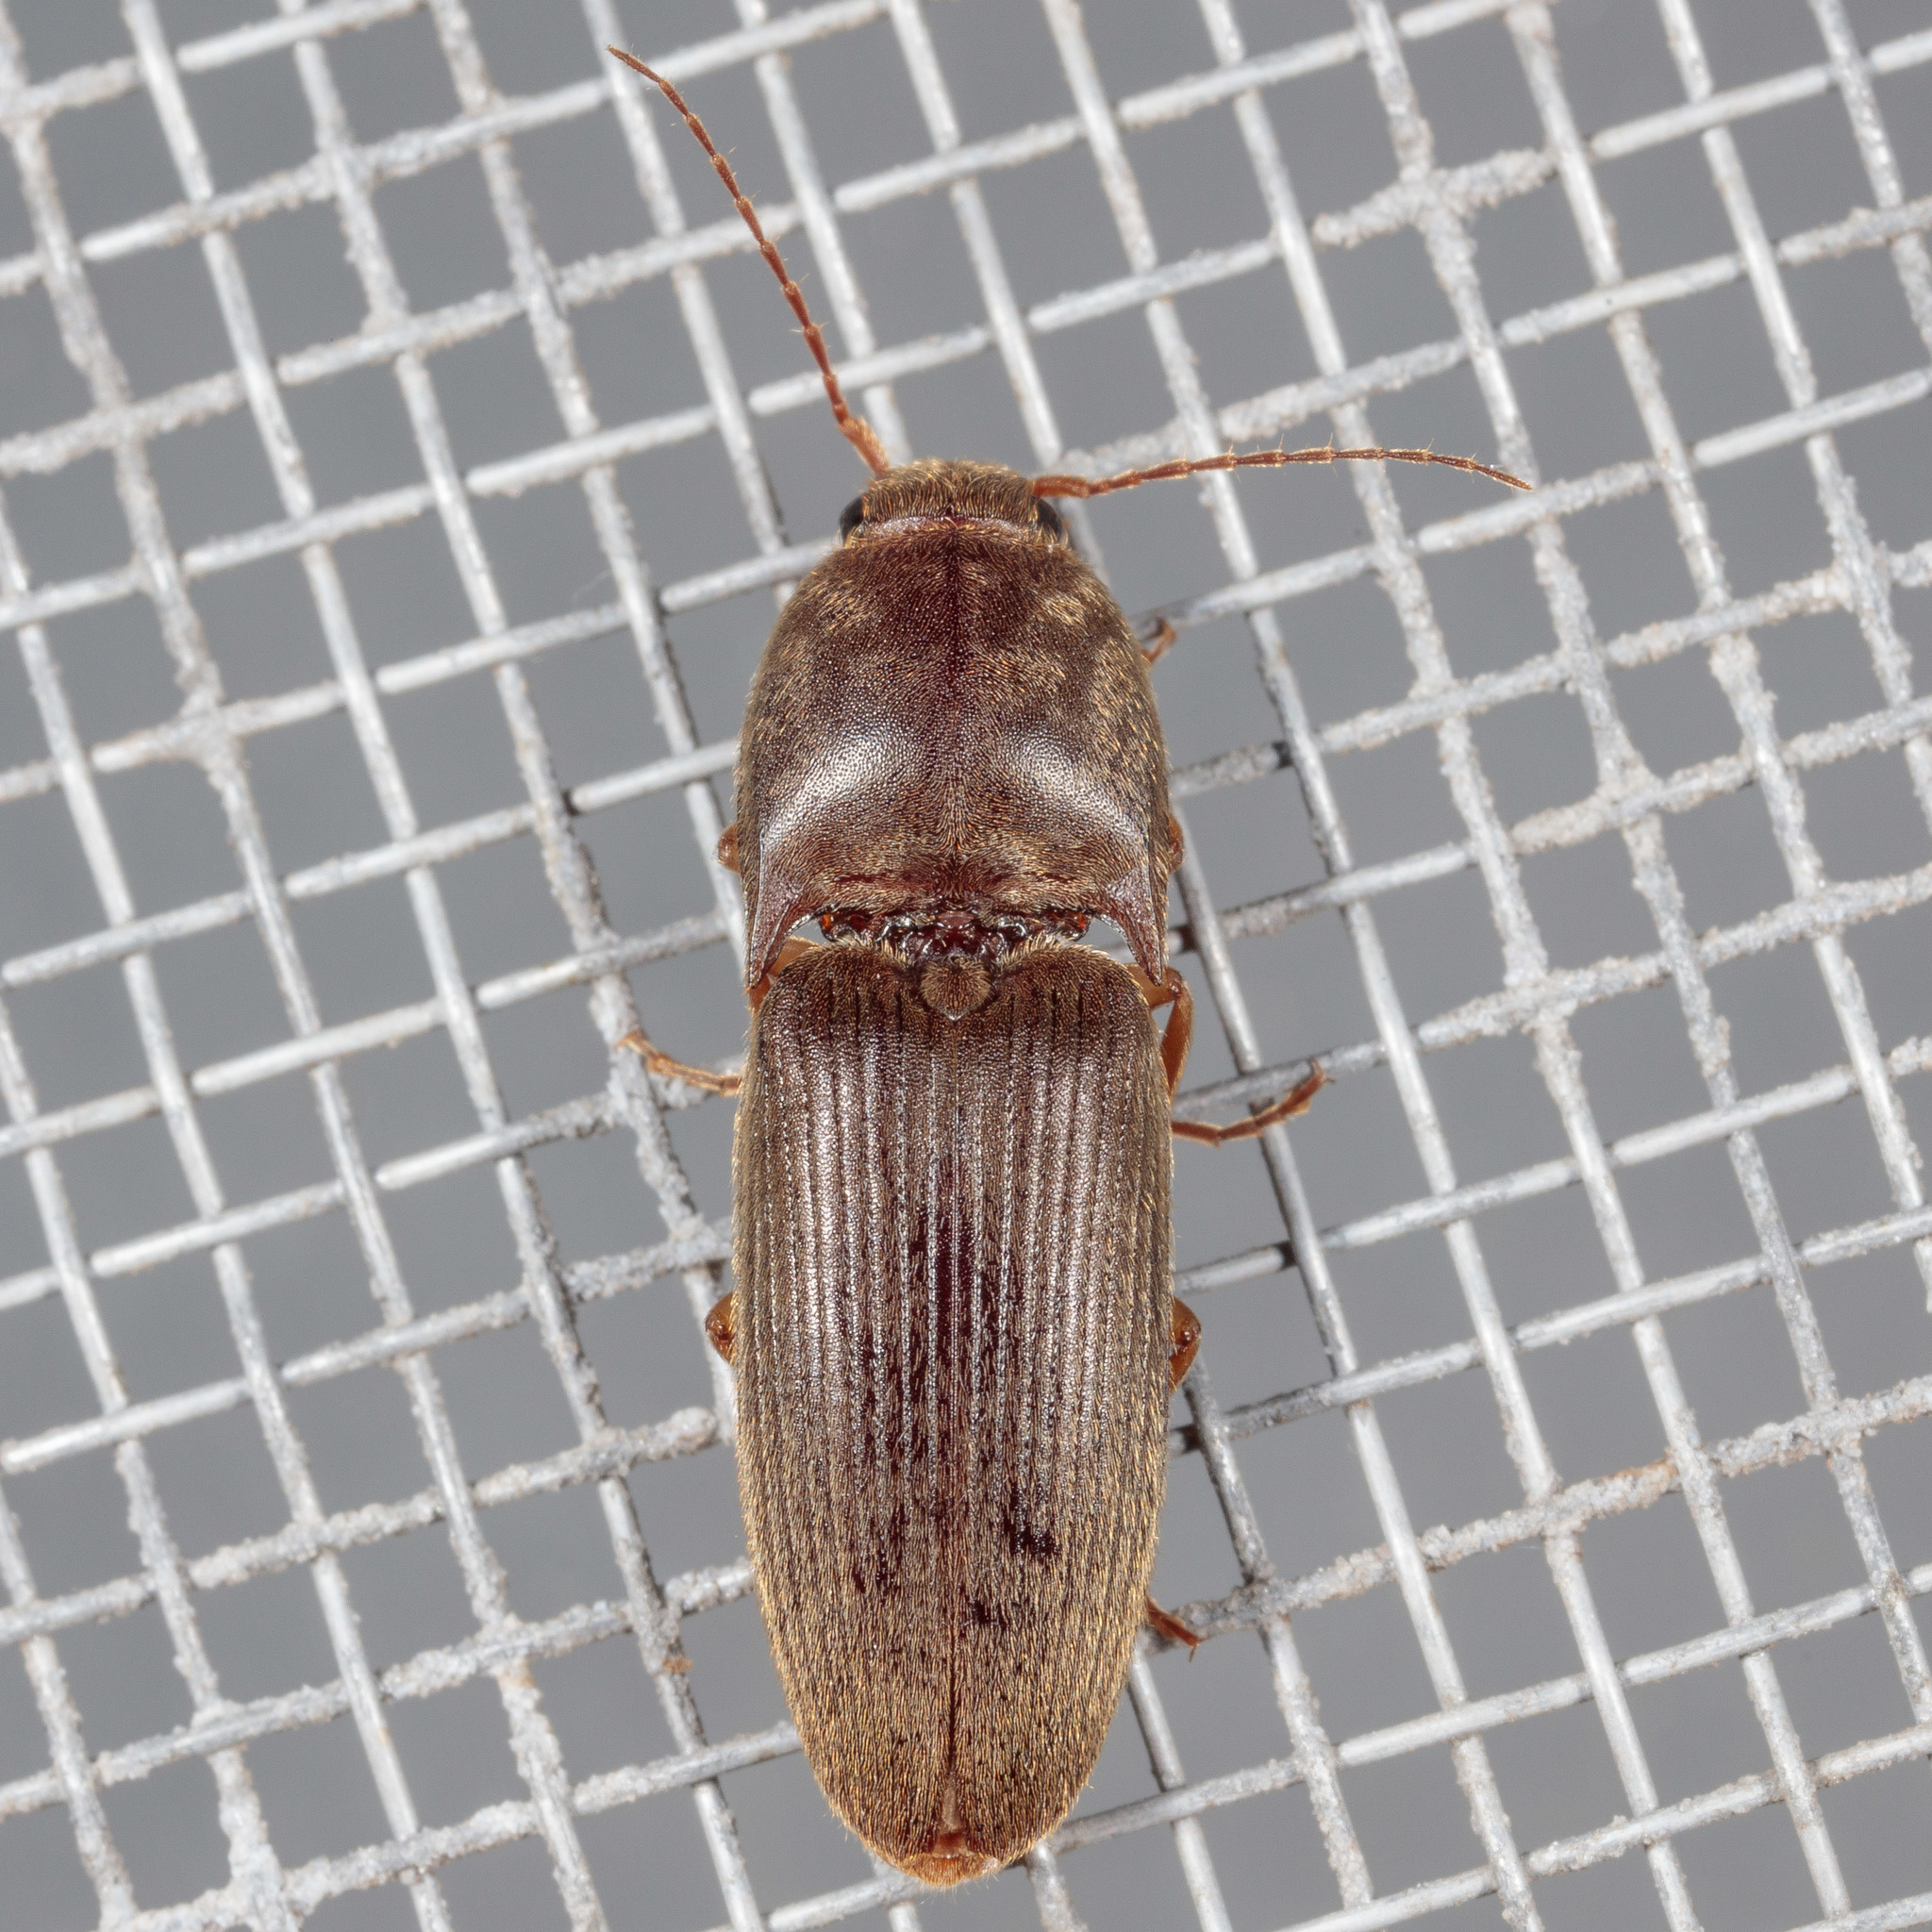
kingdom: Animalia
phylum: Arthropoda
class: Insecta
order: Coleoptera
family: Elateridae
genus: Conoderus
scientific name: Conoderus exsul
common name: Click beetle
